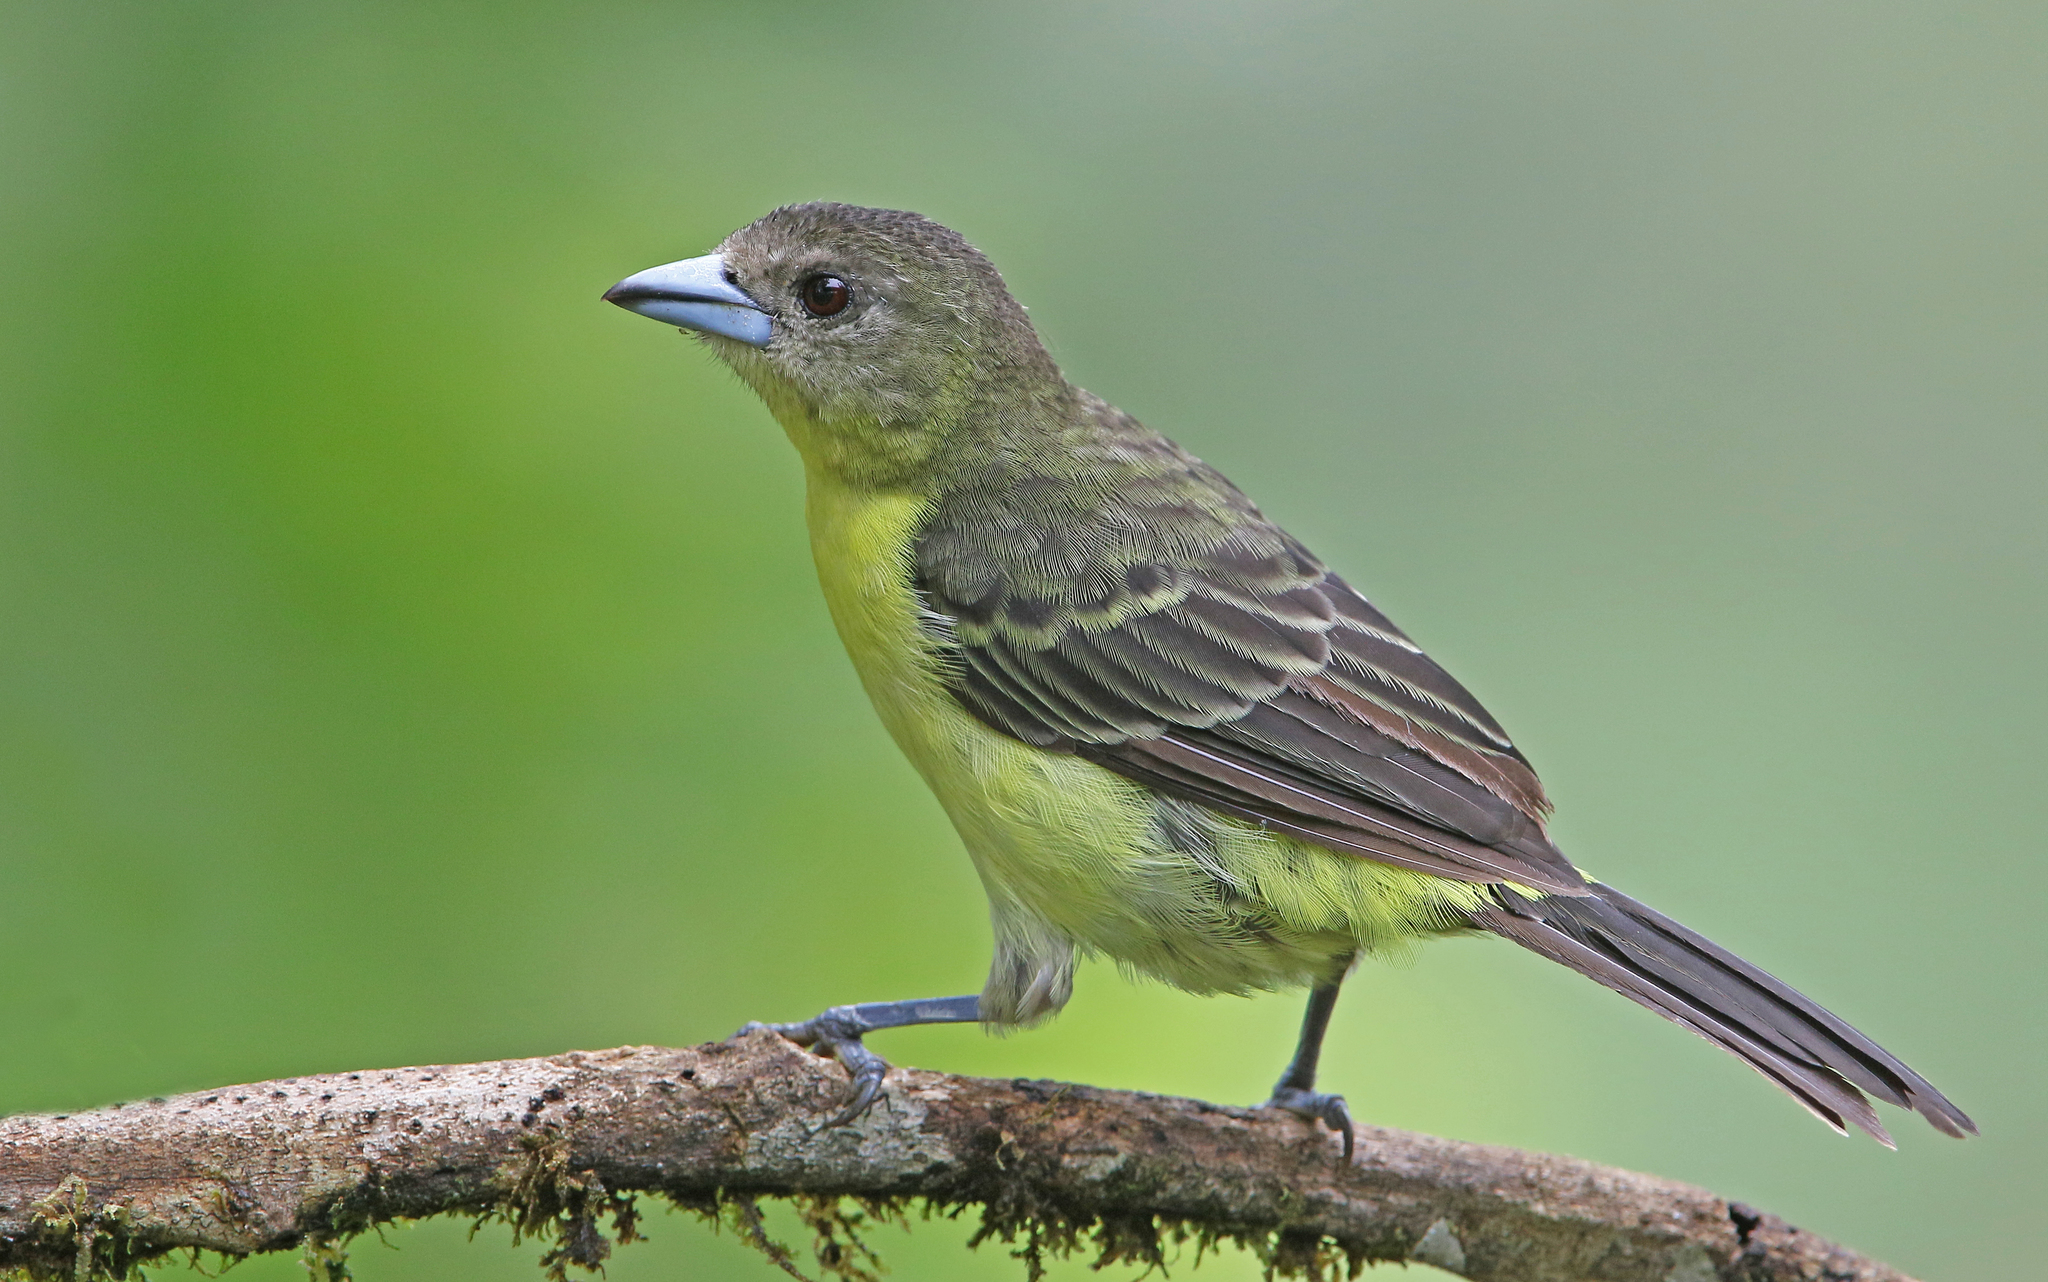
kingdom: Animalia
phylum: Chordata
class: Aves
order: Passeriformes
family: Thraupidae
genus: Ramphocelus
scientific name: Ramphocelus flammigerus
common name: Flame-rumped tanager
